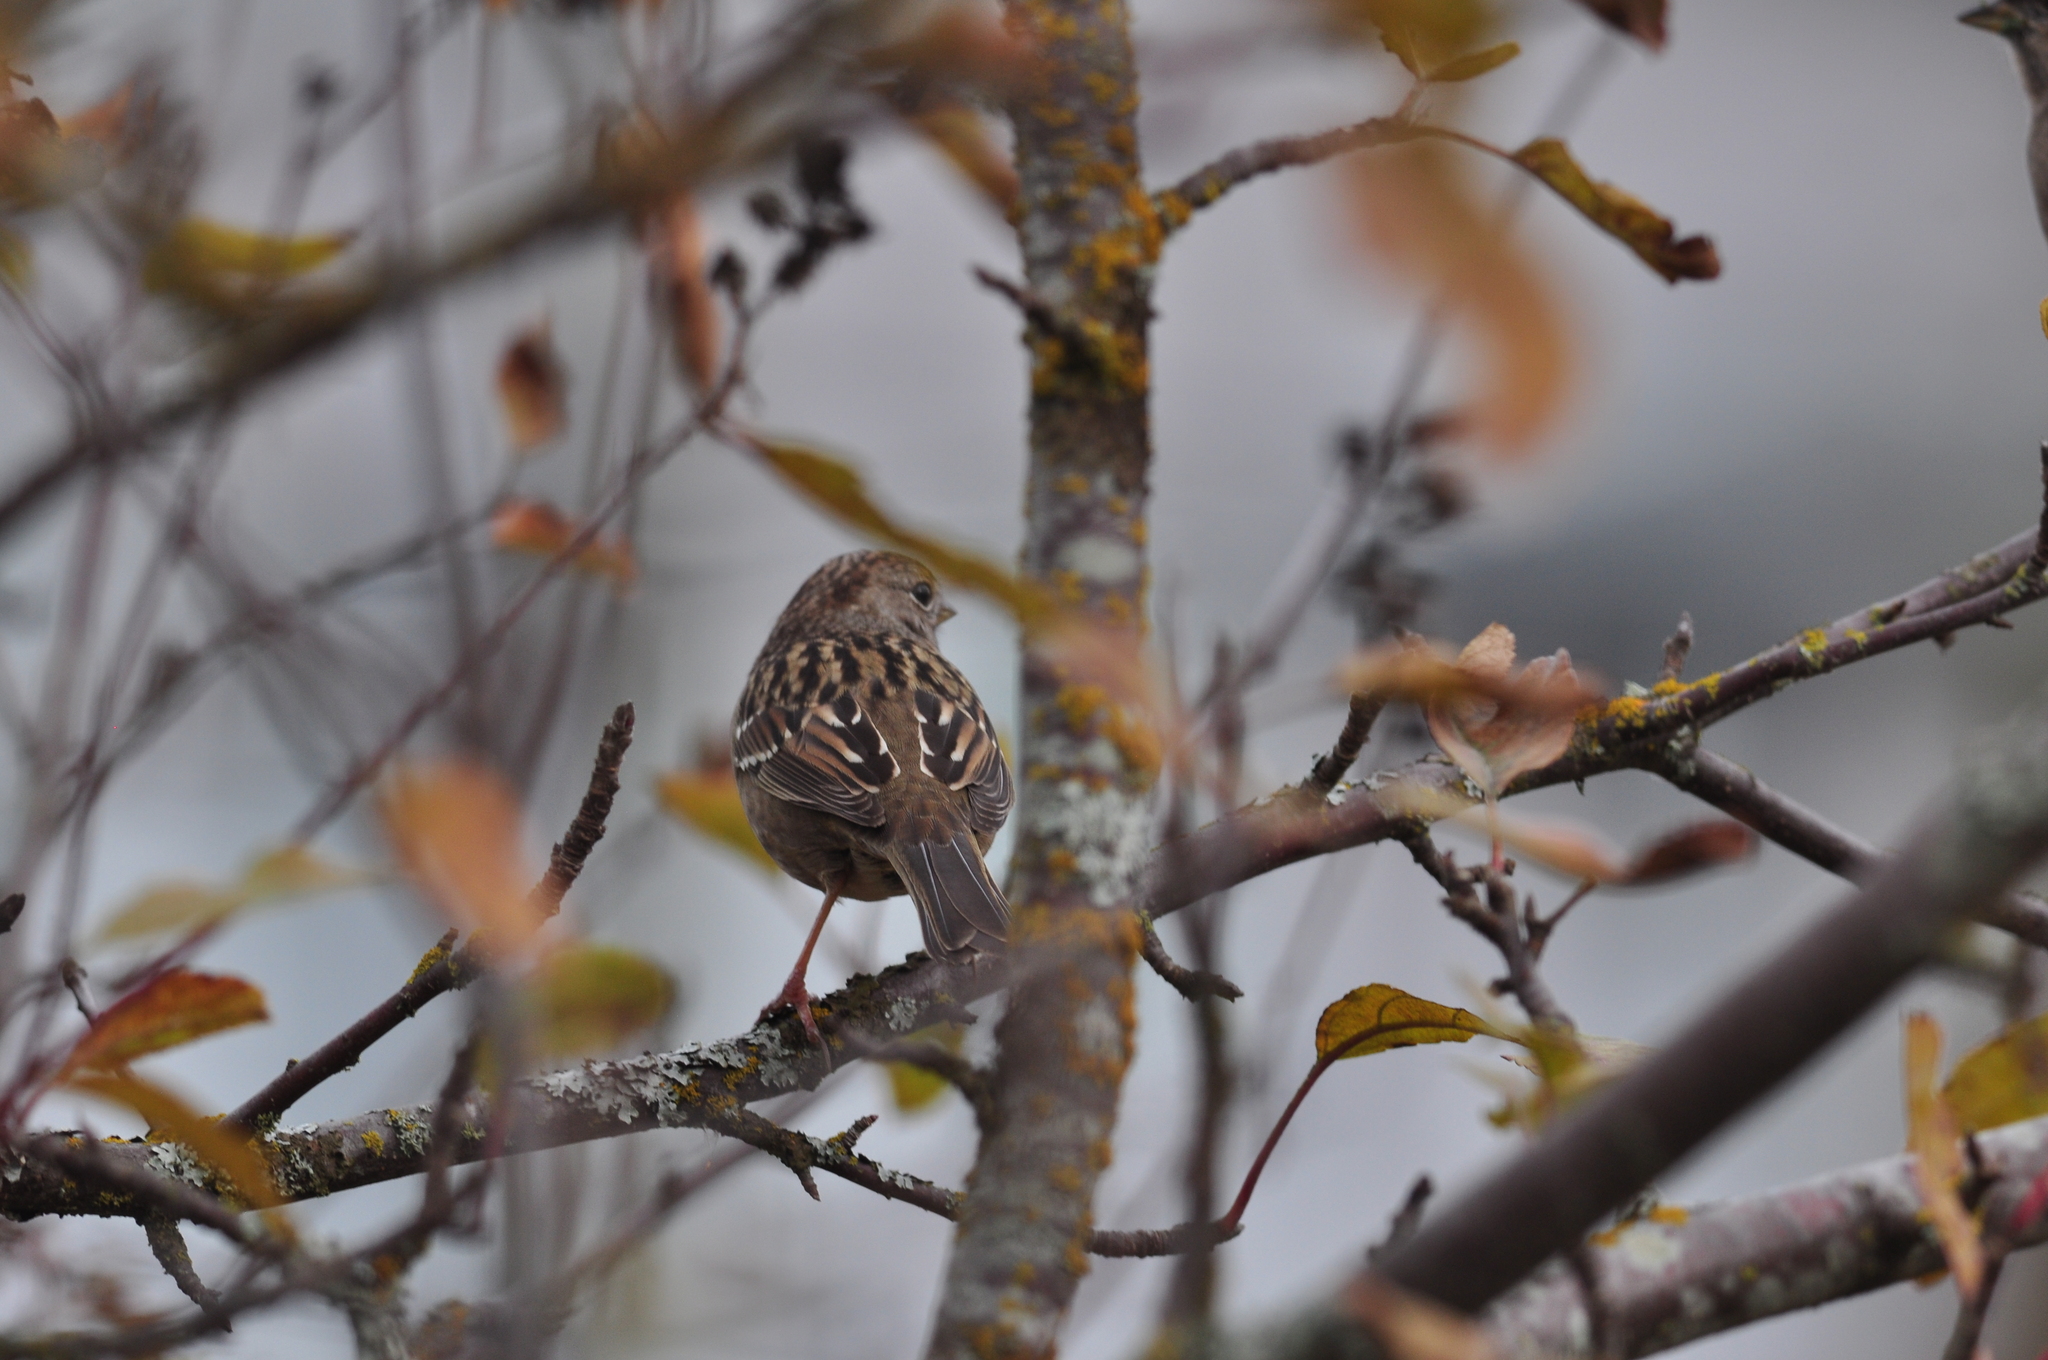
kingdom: Animalia
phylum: Chordata
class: Aves
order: Passeriformes
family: Passerellidae
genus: Zonotrichia
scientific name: Zonotrichia atricapilla
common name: Golden-crowned sparrow
